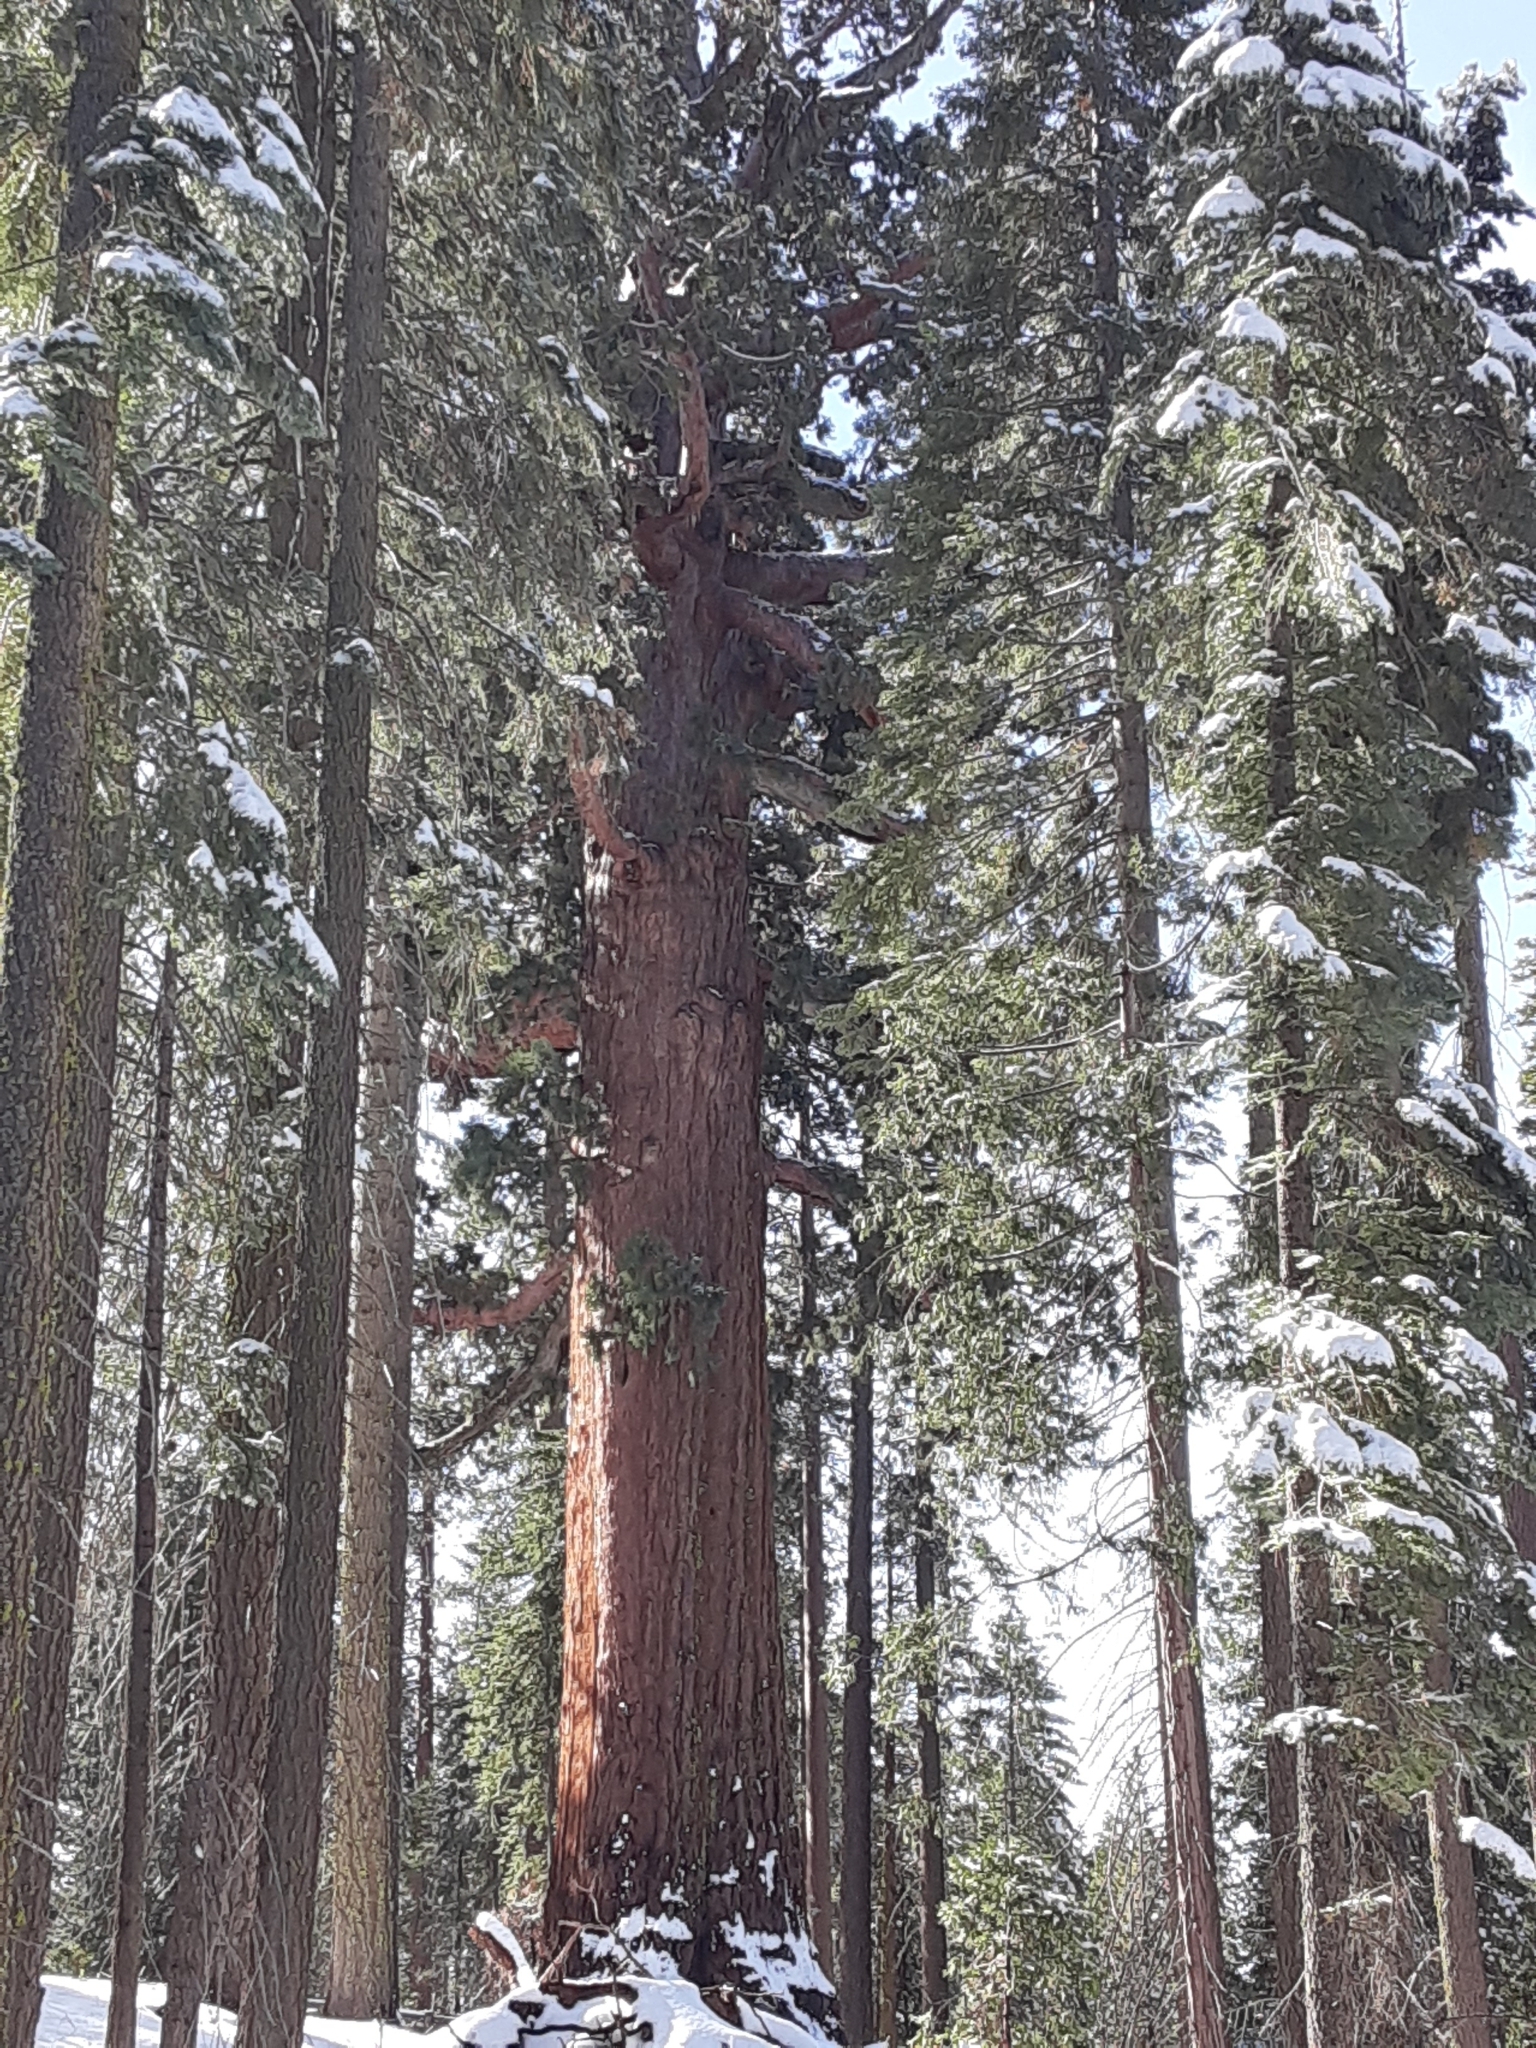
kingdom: Plantae
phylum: Tracheophyta
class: Pinopsida
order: Pinales
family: Cupressaceae
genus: Sequoiadendron
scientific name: Sequoiadendron giganteum
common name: Wellingtonia
